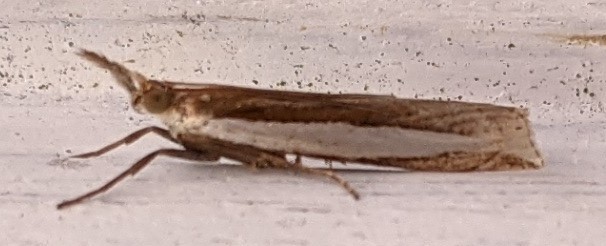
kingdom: Animalia
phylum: Arthropoda
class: Insecta
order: Lepidoptera
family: Crambidae
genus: Crambus
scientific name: Crambus leachellus
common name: Leach's grass-veneer
